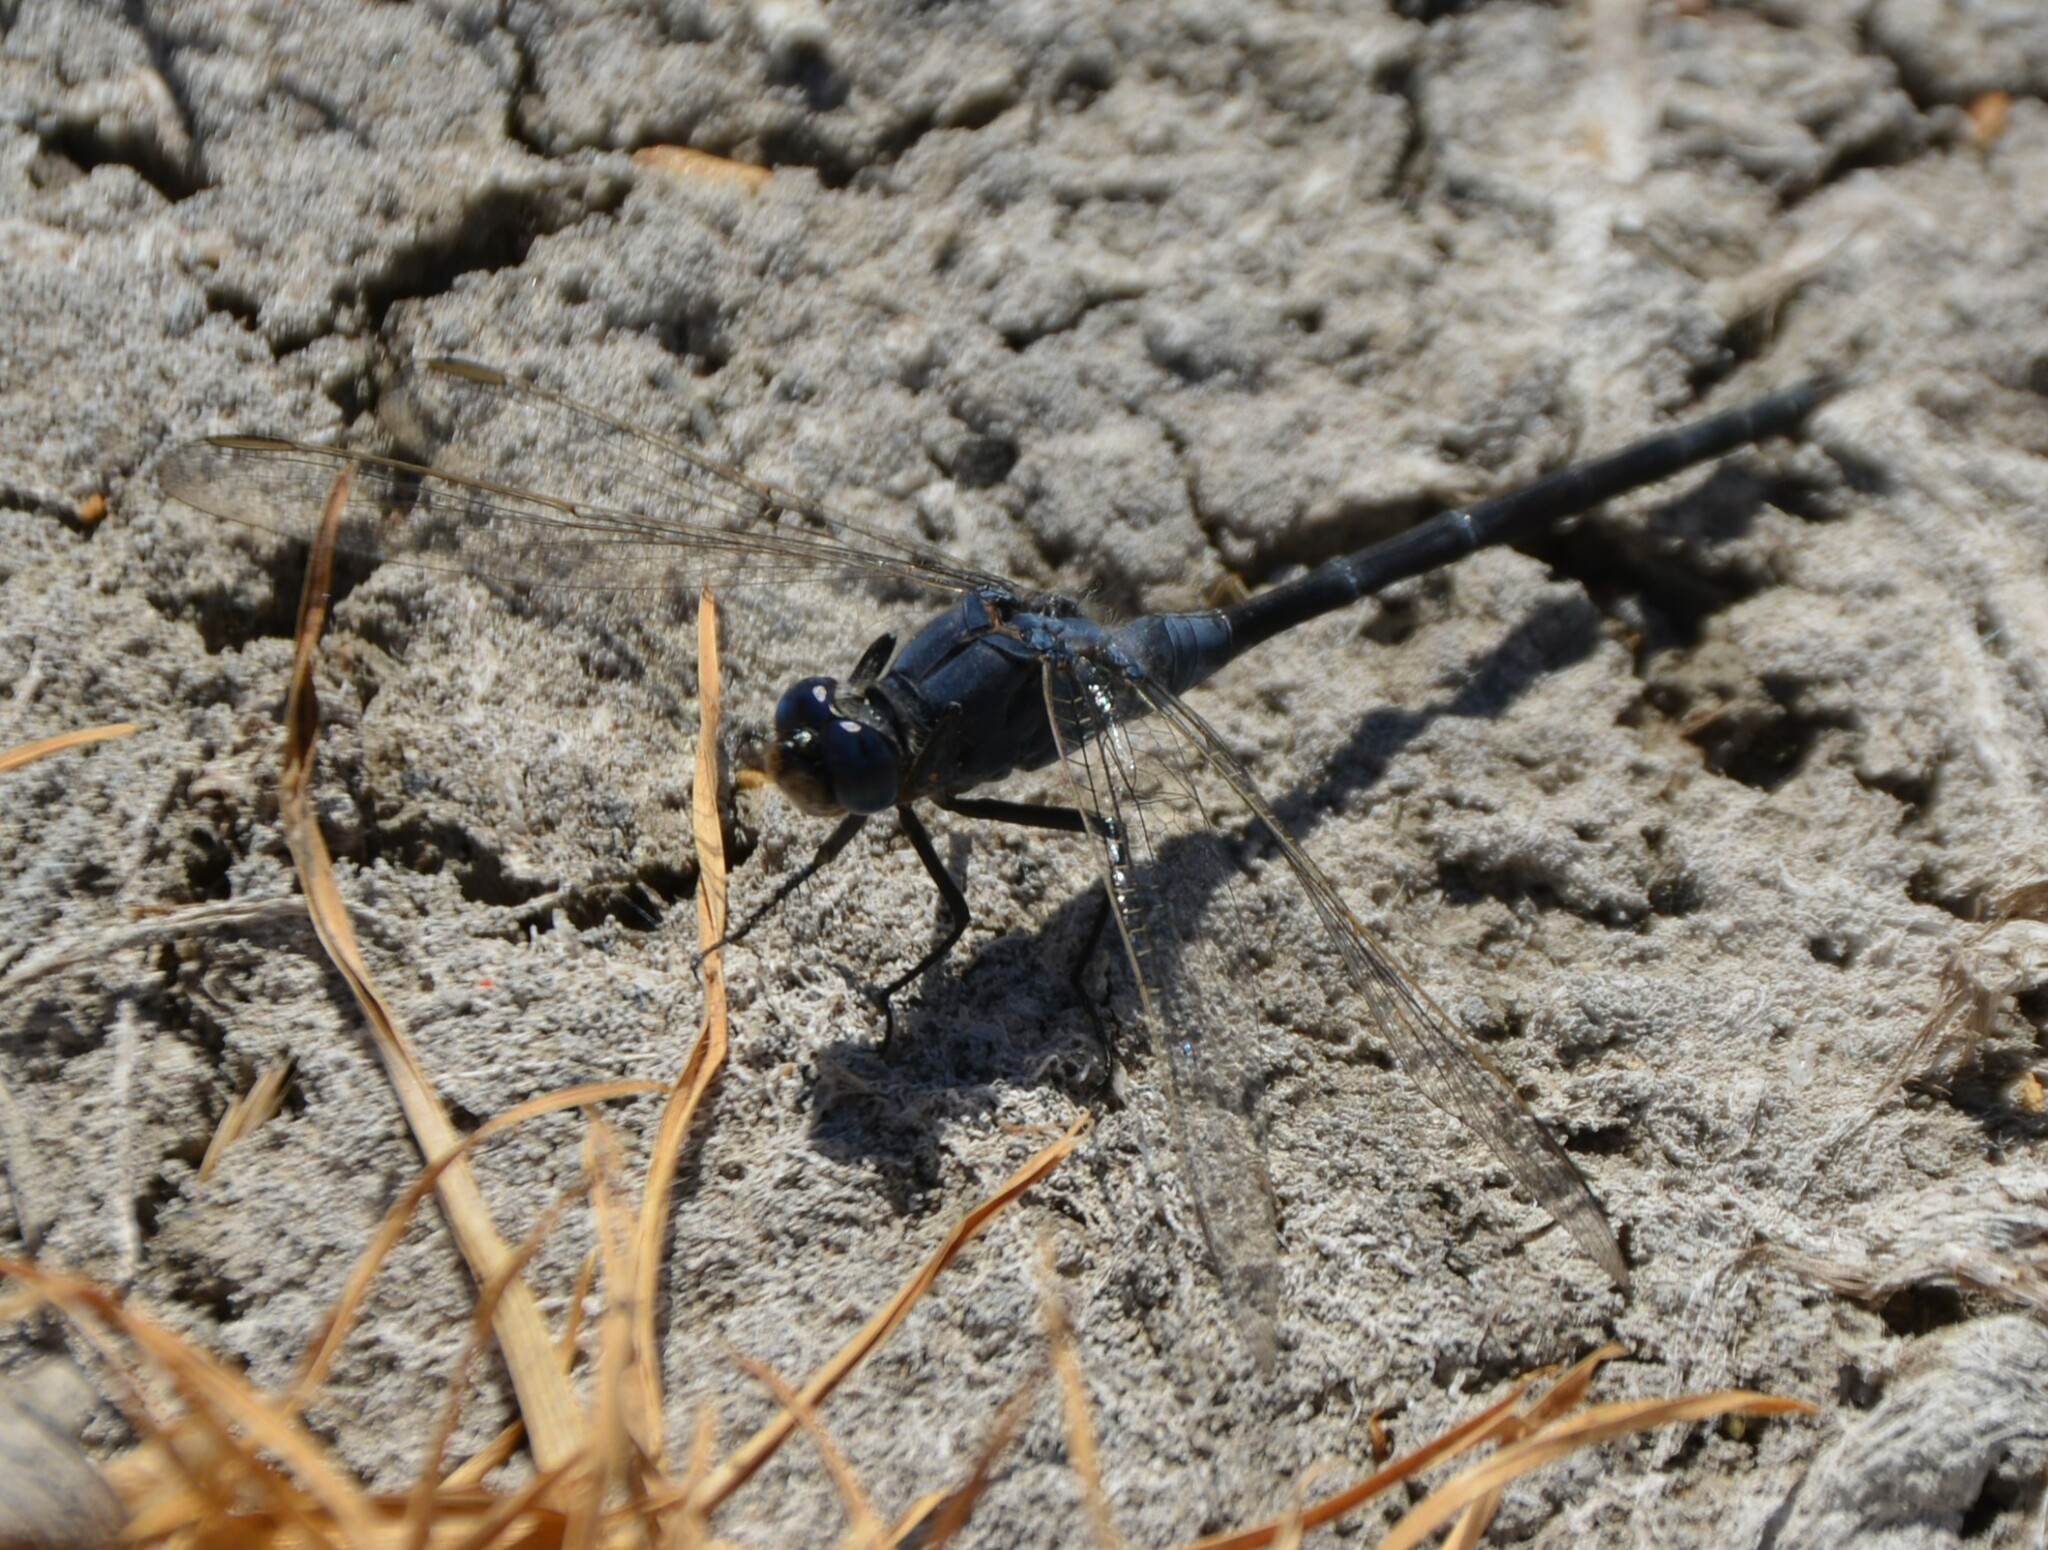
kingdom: Animalia
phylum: Arthropoda
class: Insecta
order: Odonata
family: Libellulidae
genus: Orthetrum
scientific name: Orthetrum trinacria
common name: Long skimmer
